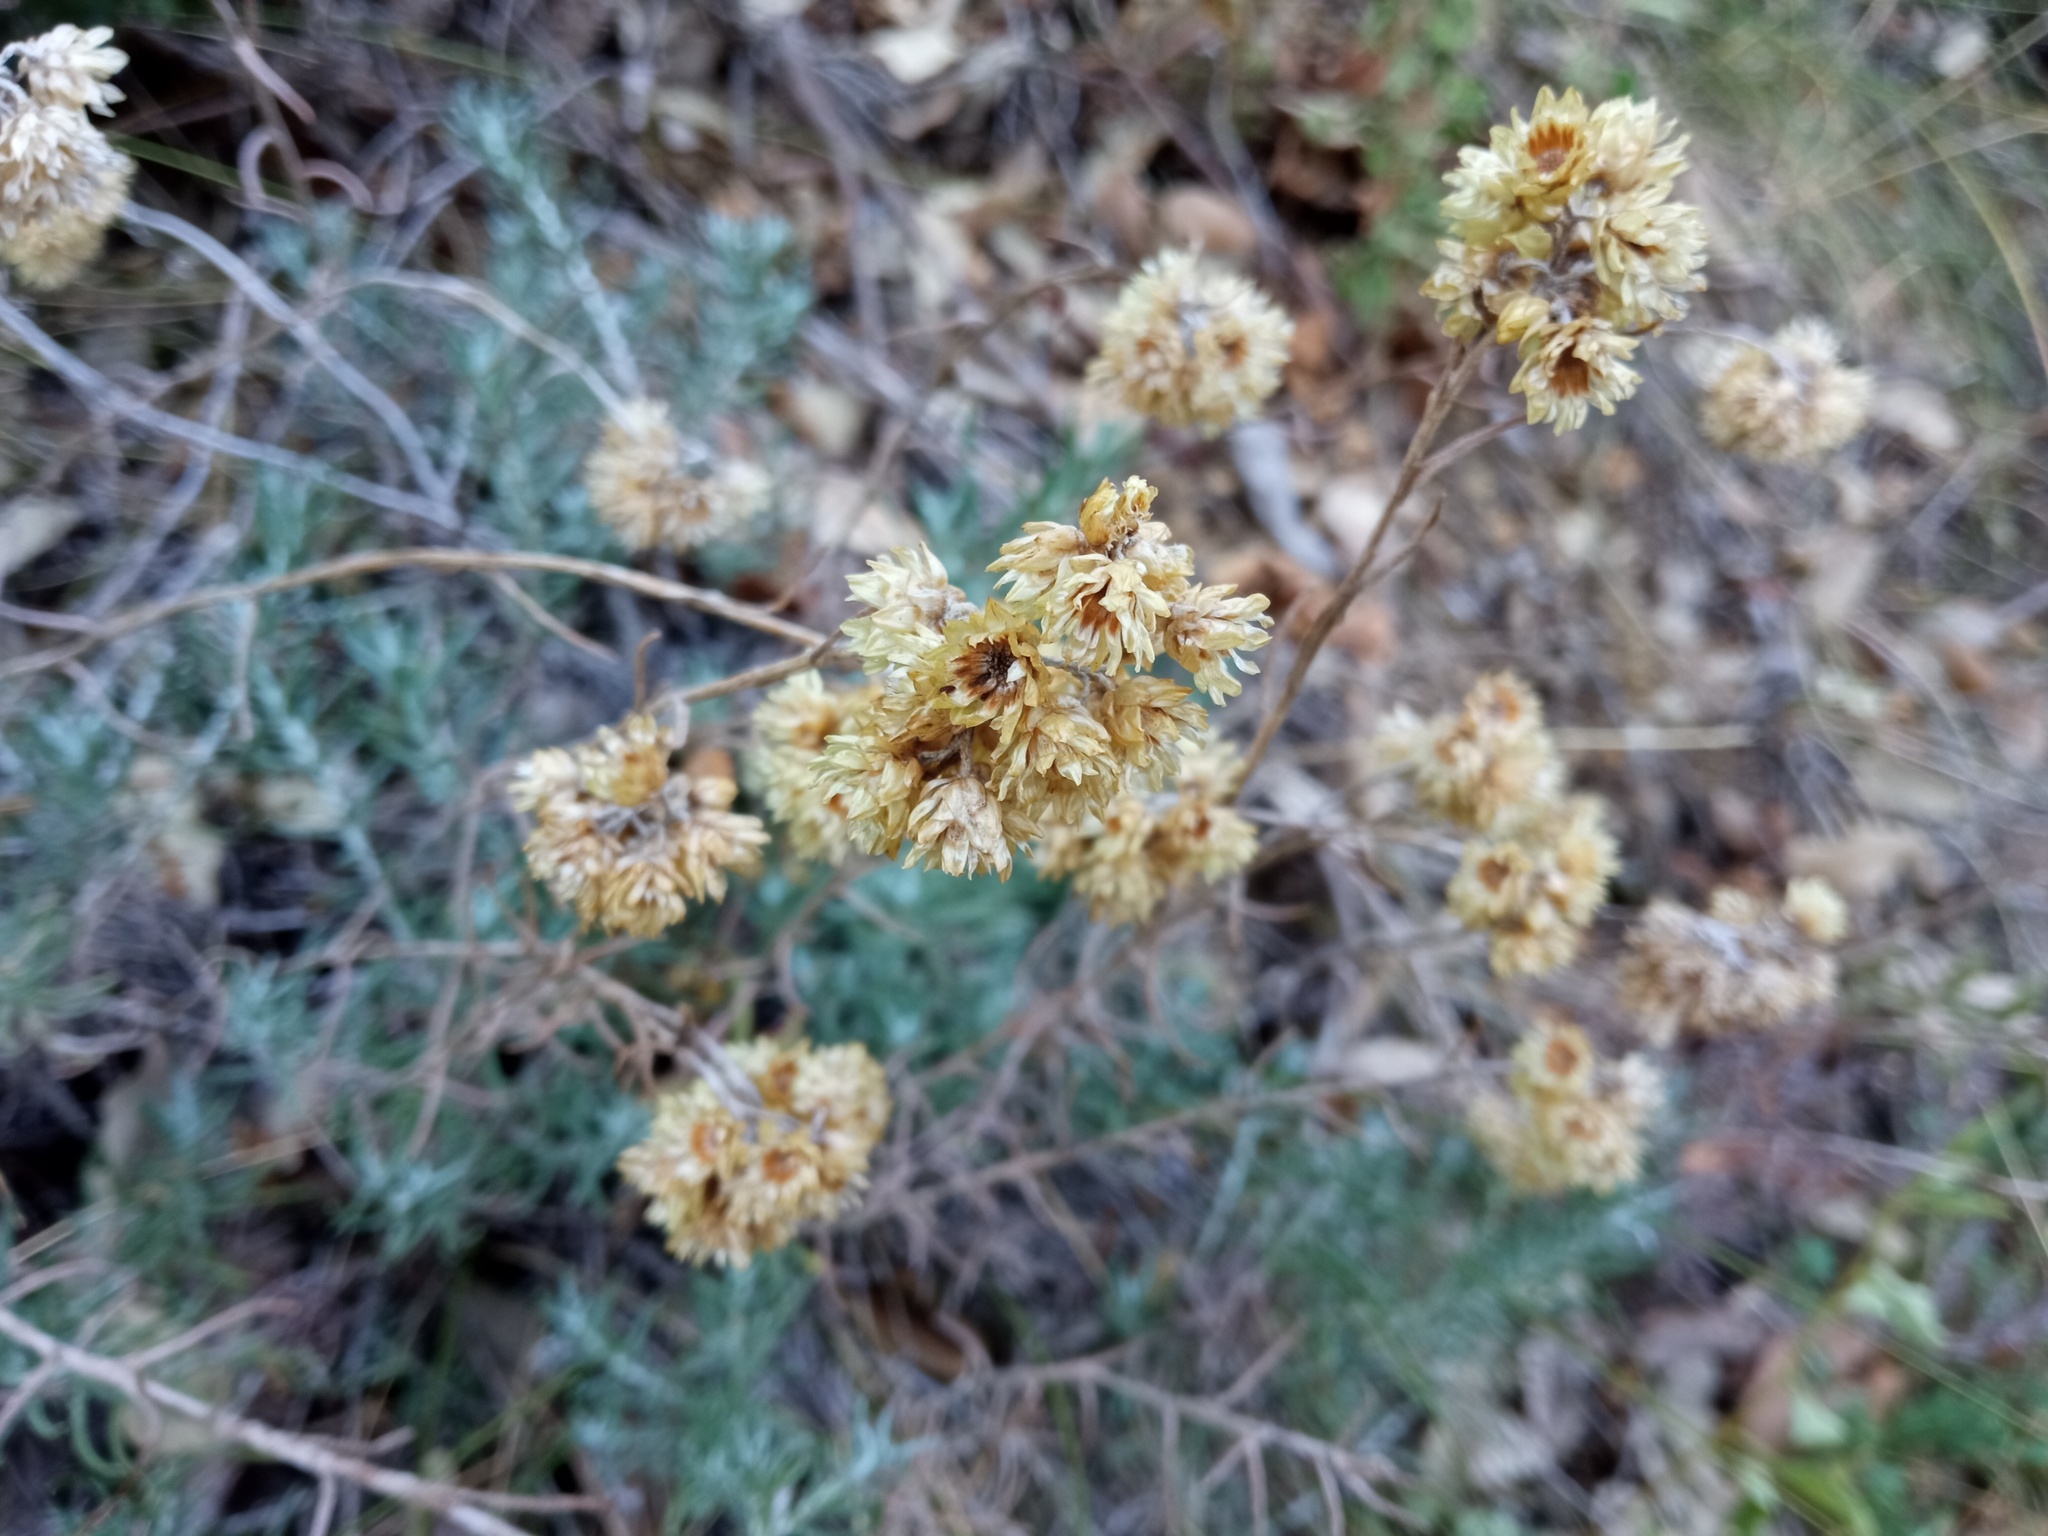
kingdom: Plantae
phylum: Tracheophyta
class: Magnoliopsida
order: Asterales
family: Asteraceae
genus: Helichrysum
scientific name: Helichrysum stoechas
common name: Goldilocks
